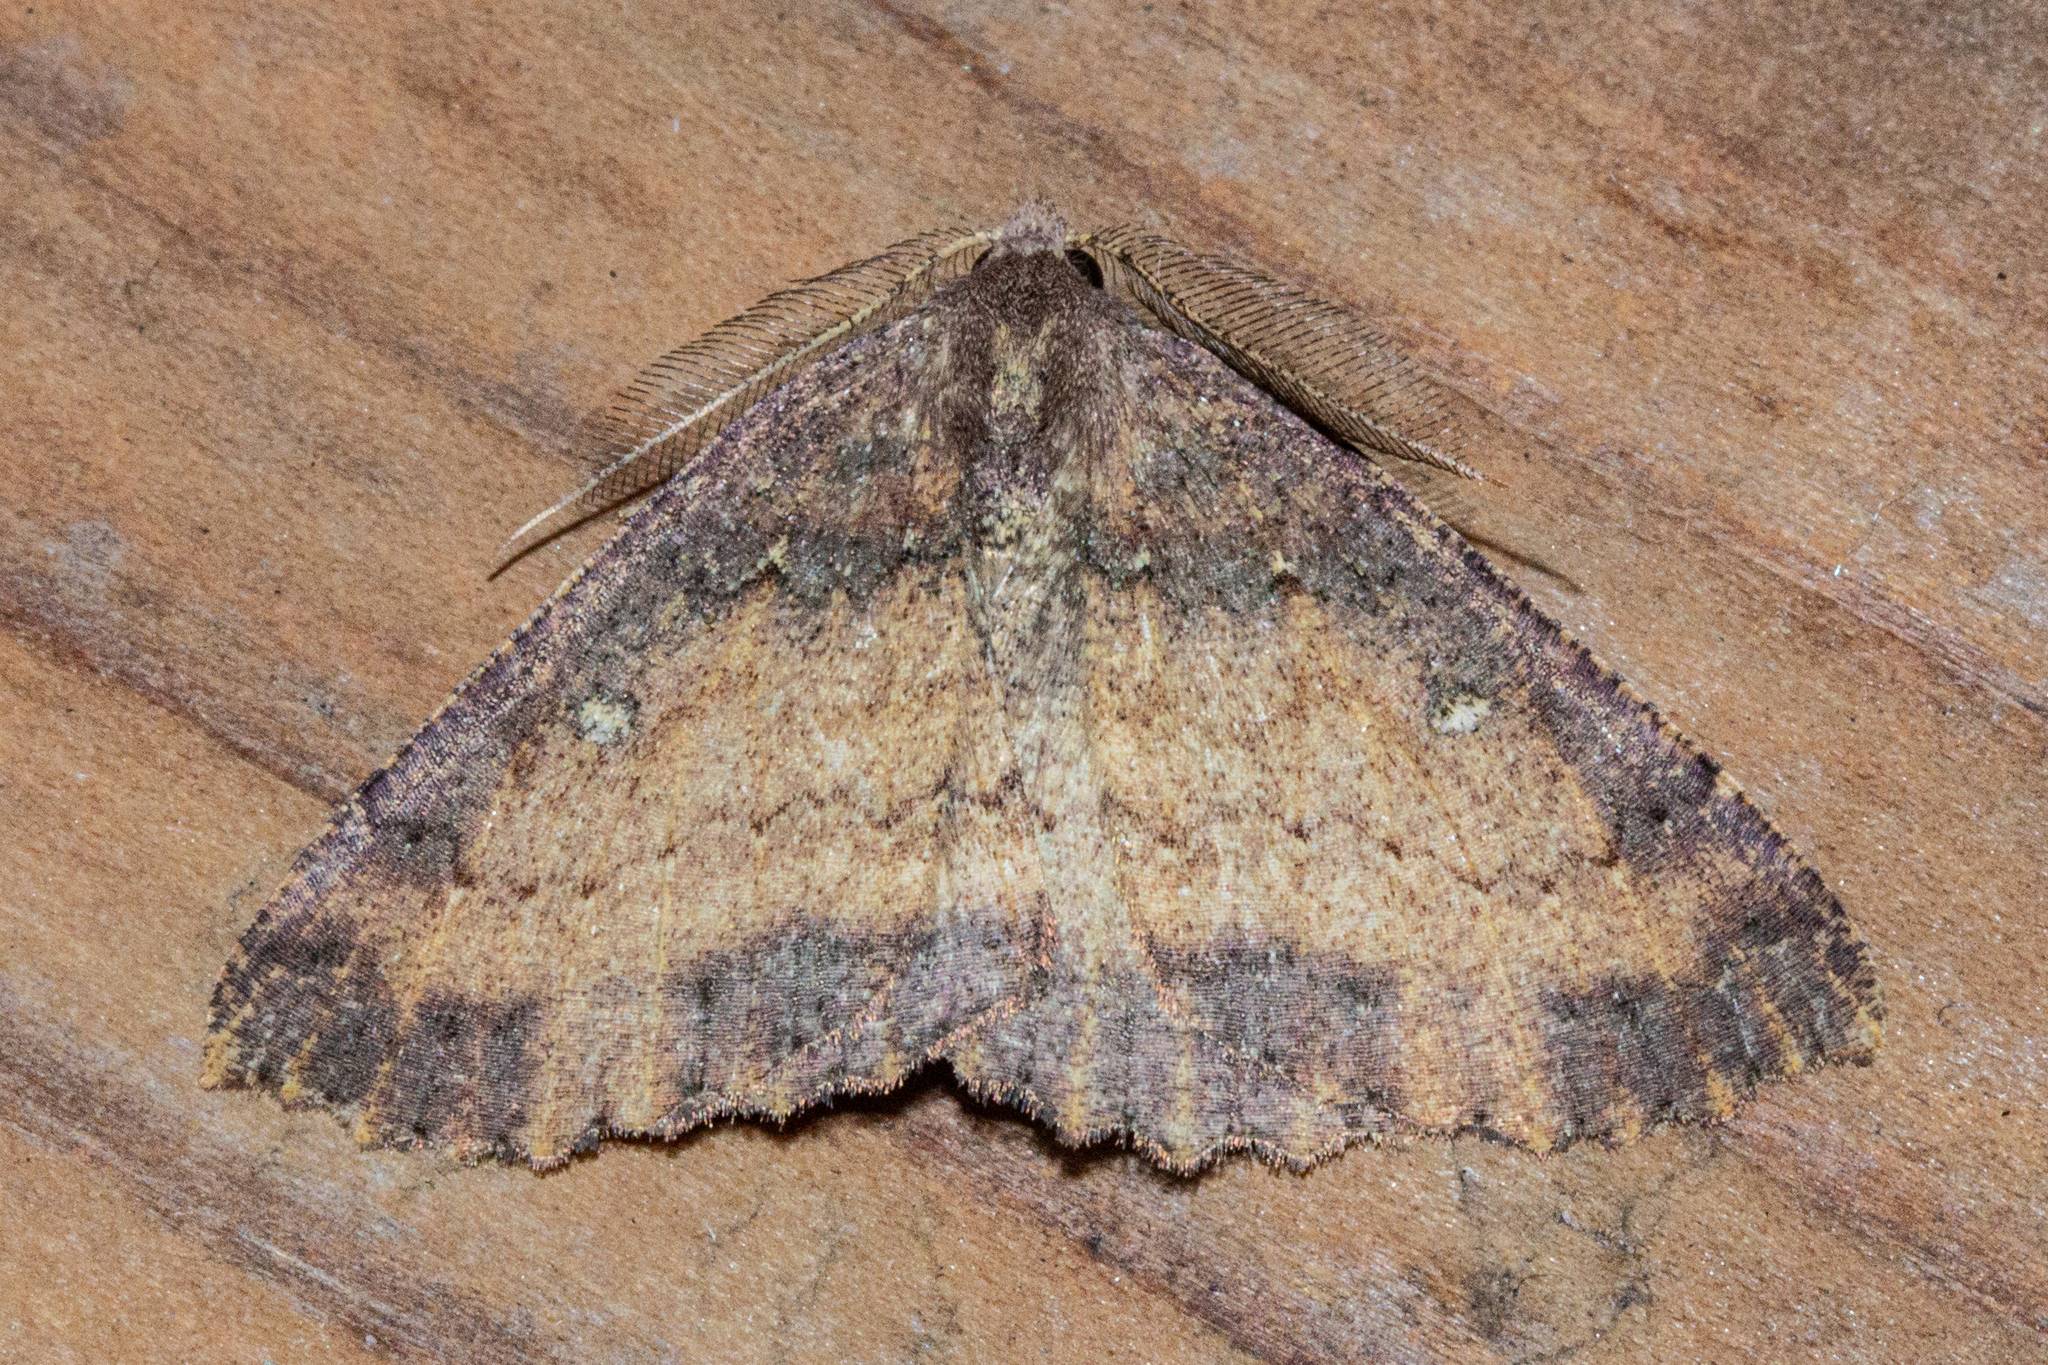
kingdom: Animalia
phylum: Arthropoda
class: Insecta
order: Lepidoptera
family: Geometridae
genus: Cleora
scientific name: Cleora scriptaria
